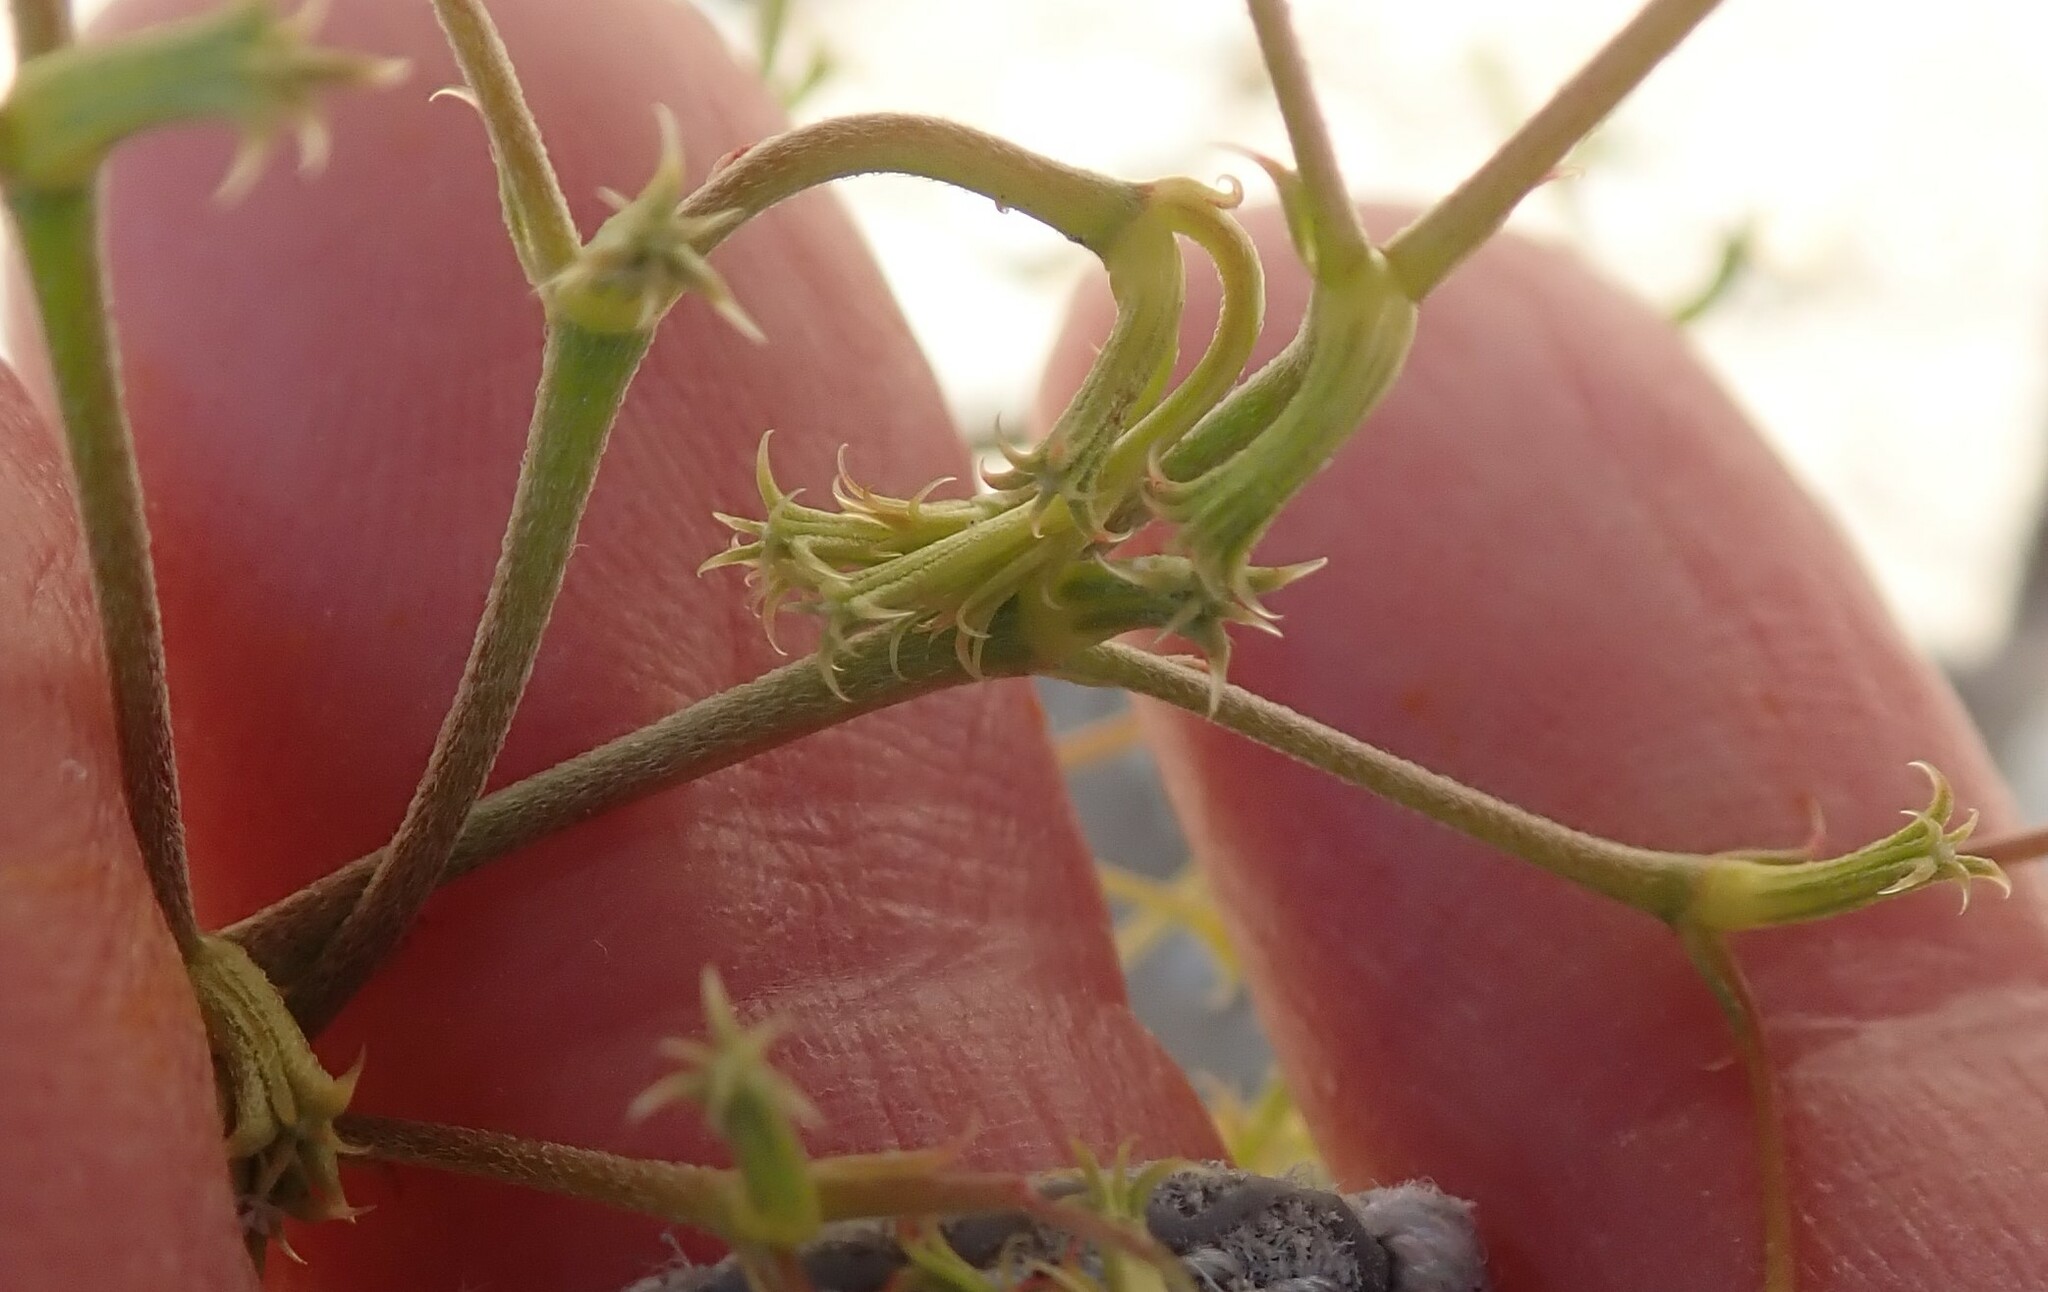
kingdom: Plantae
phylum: Tracheophyta
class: Magnoliopsida
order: Caryophyllales
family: Polygonaceae
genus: Chorizanthe
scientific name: Chorizanthe brevicornu
